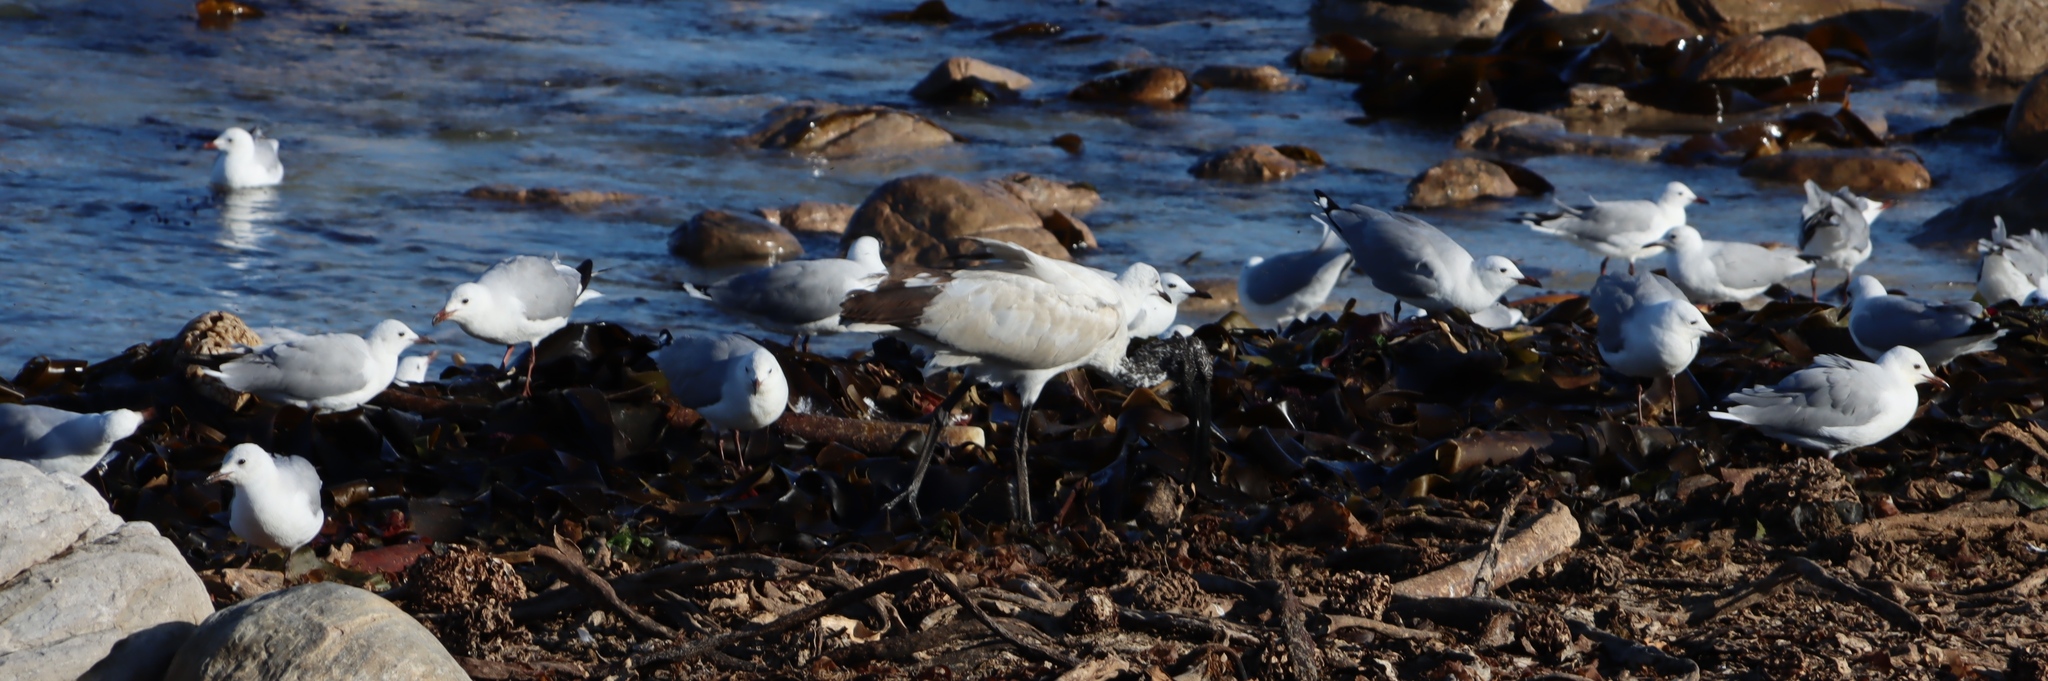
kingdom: Animalia
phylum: Chordata
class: Aves
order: Pelecaniformes
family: Threskiornithidae
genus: Threskiornis
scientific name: Threskiornis aethiopicus
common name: Sacred ibis
